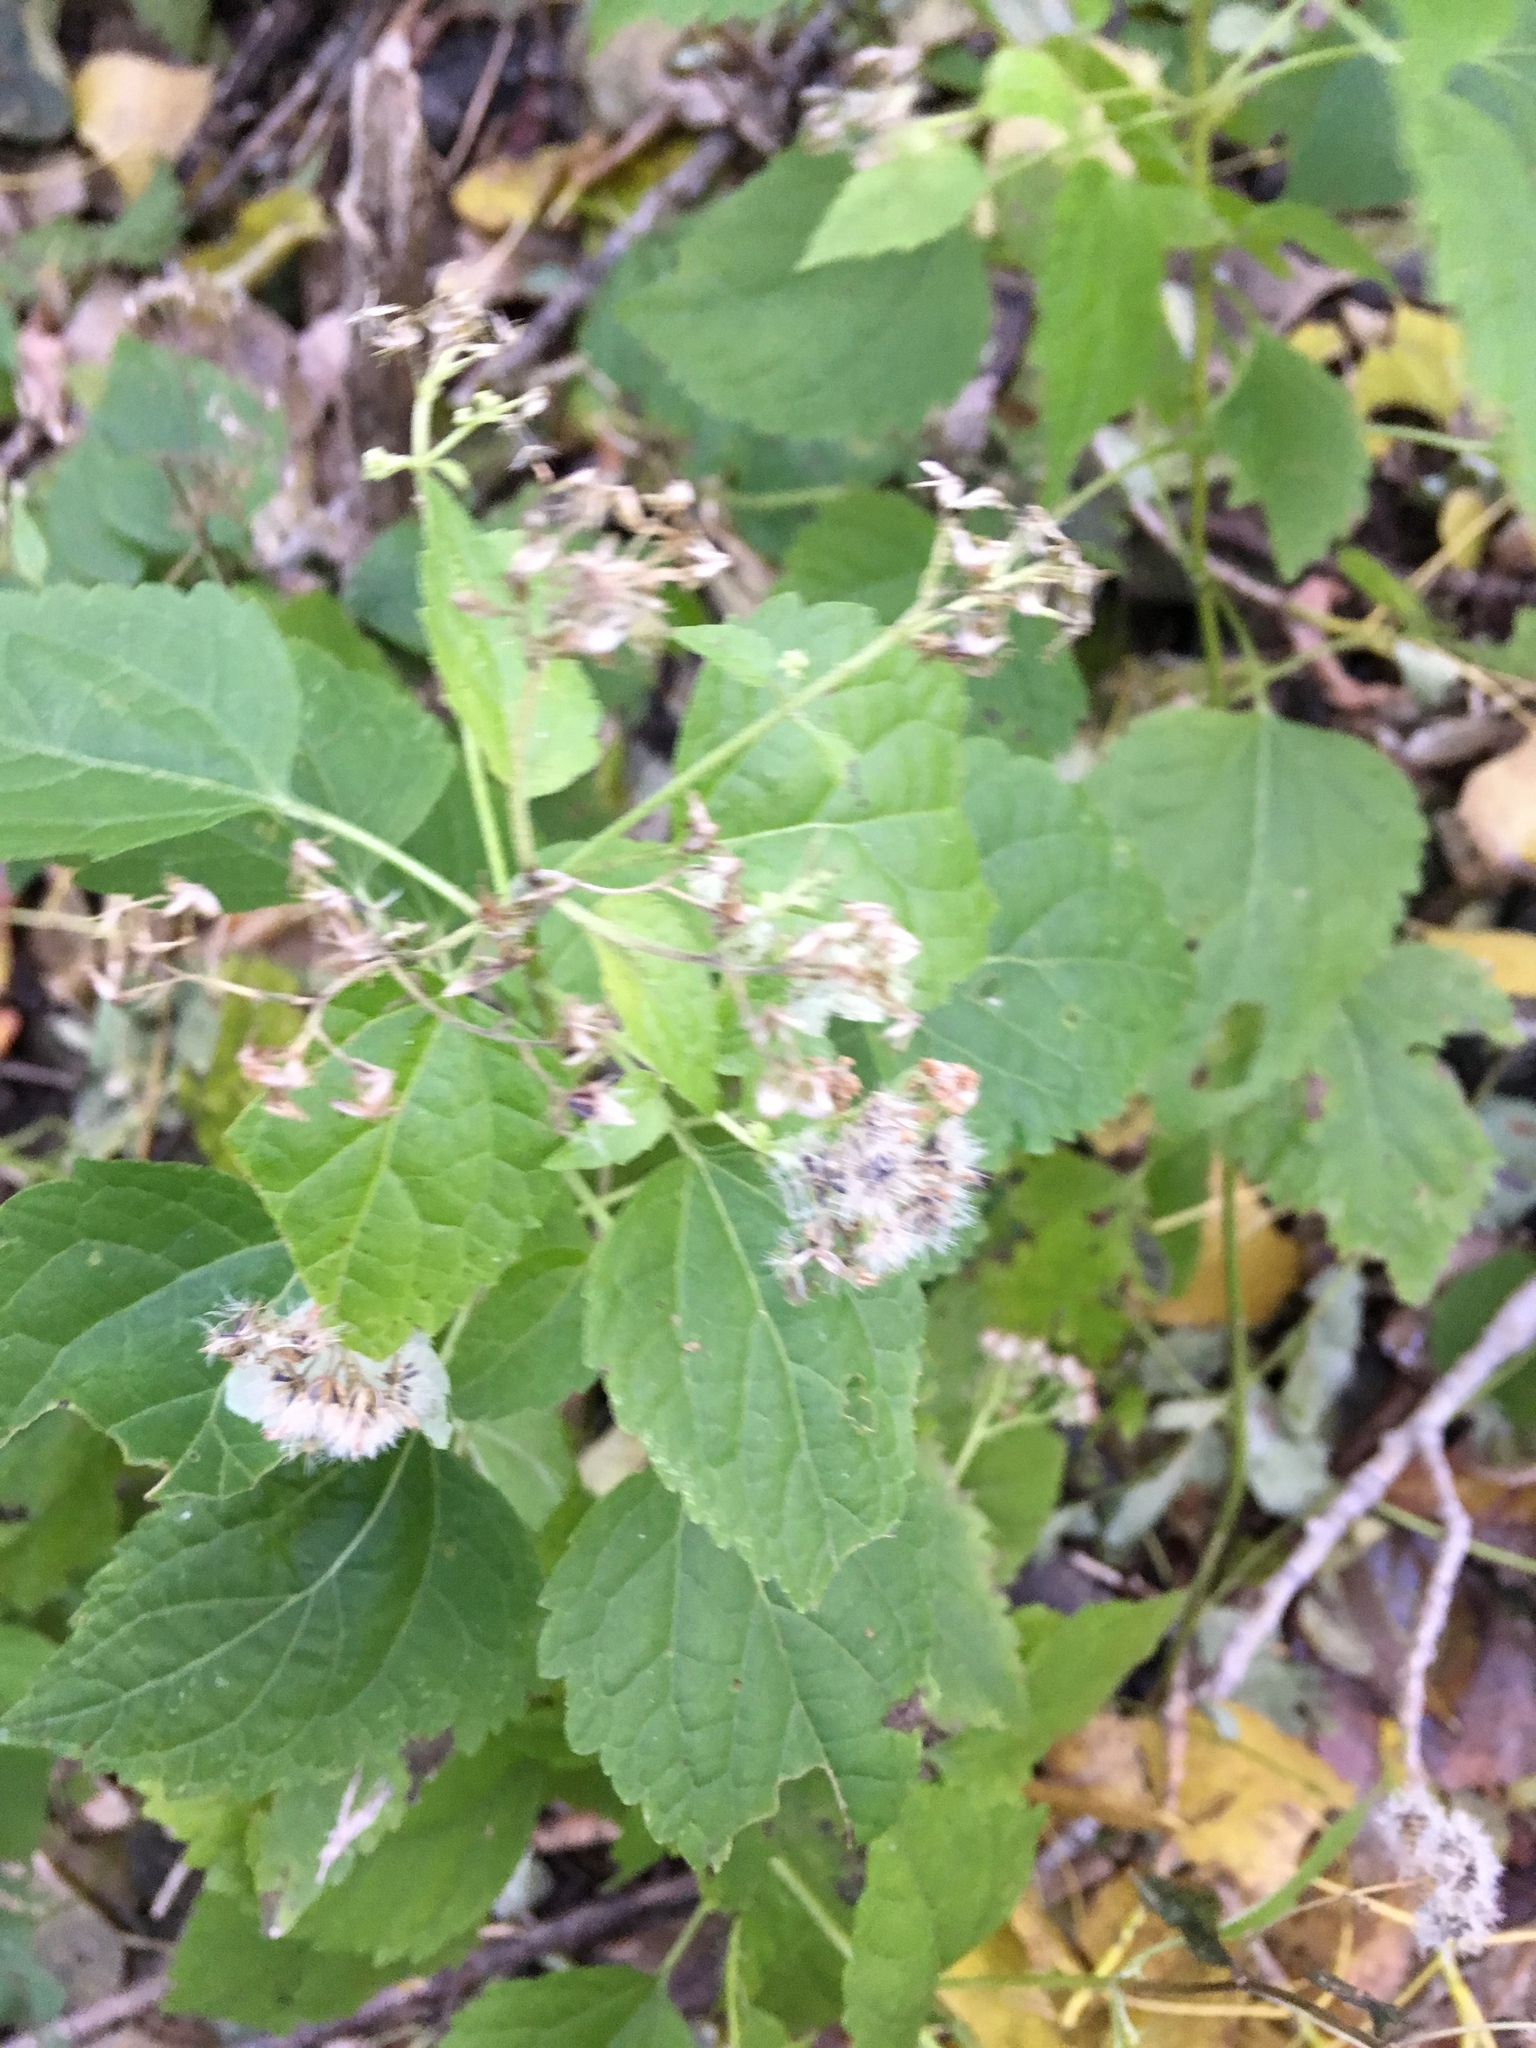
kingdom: Plantae
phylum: Tracheophyta
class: Magnoliopsida
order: Asterales
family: Asteraceae
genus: Ageratina
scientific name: Ageratina altissima
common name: White snakeroot
